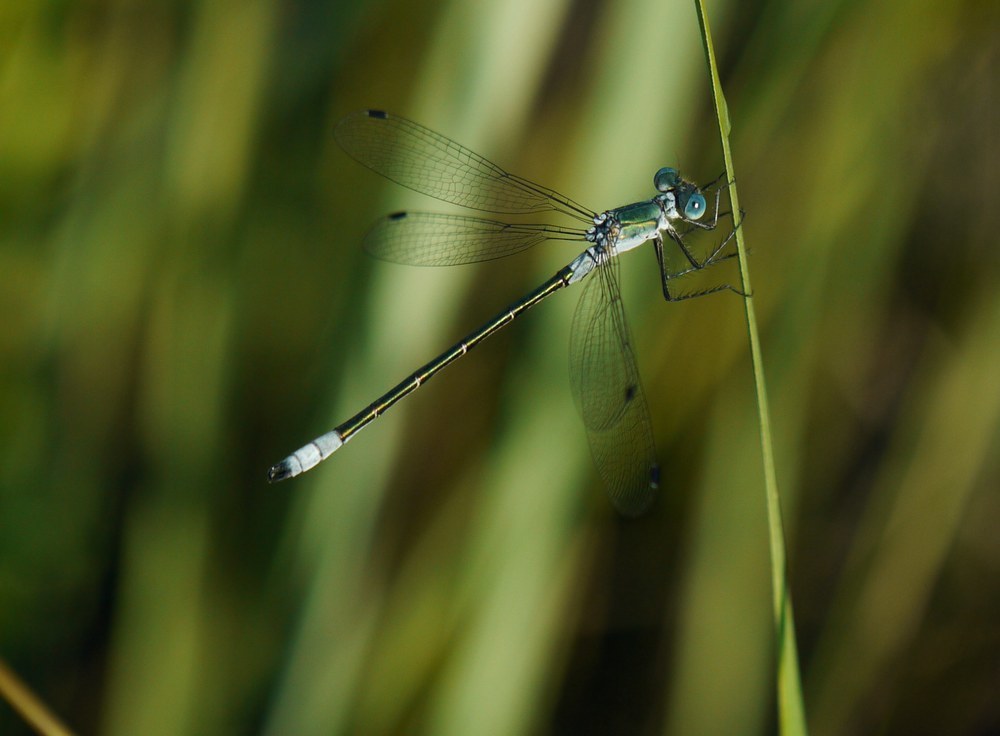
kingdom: Animalia
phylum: Arthropoda
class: Insecta
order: Odonata
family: Lestidae
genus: Lestes
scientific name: Lestes dryas
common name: Scarce emerald damselfly
